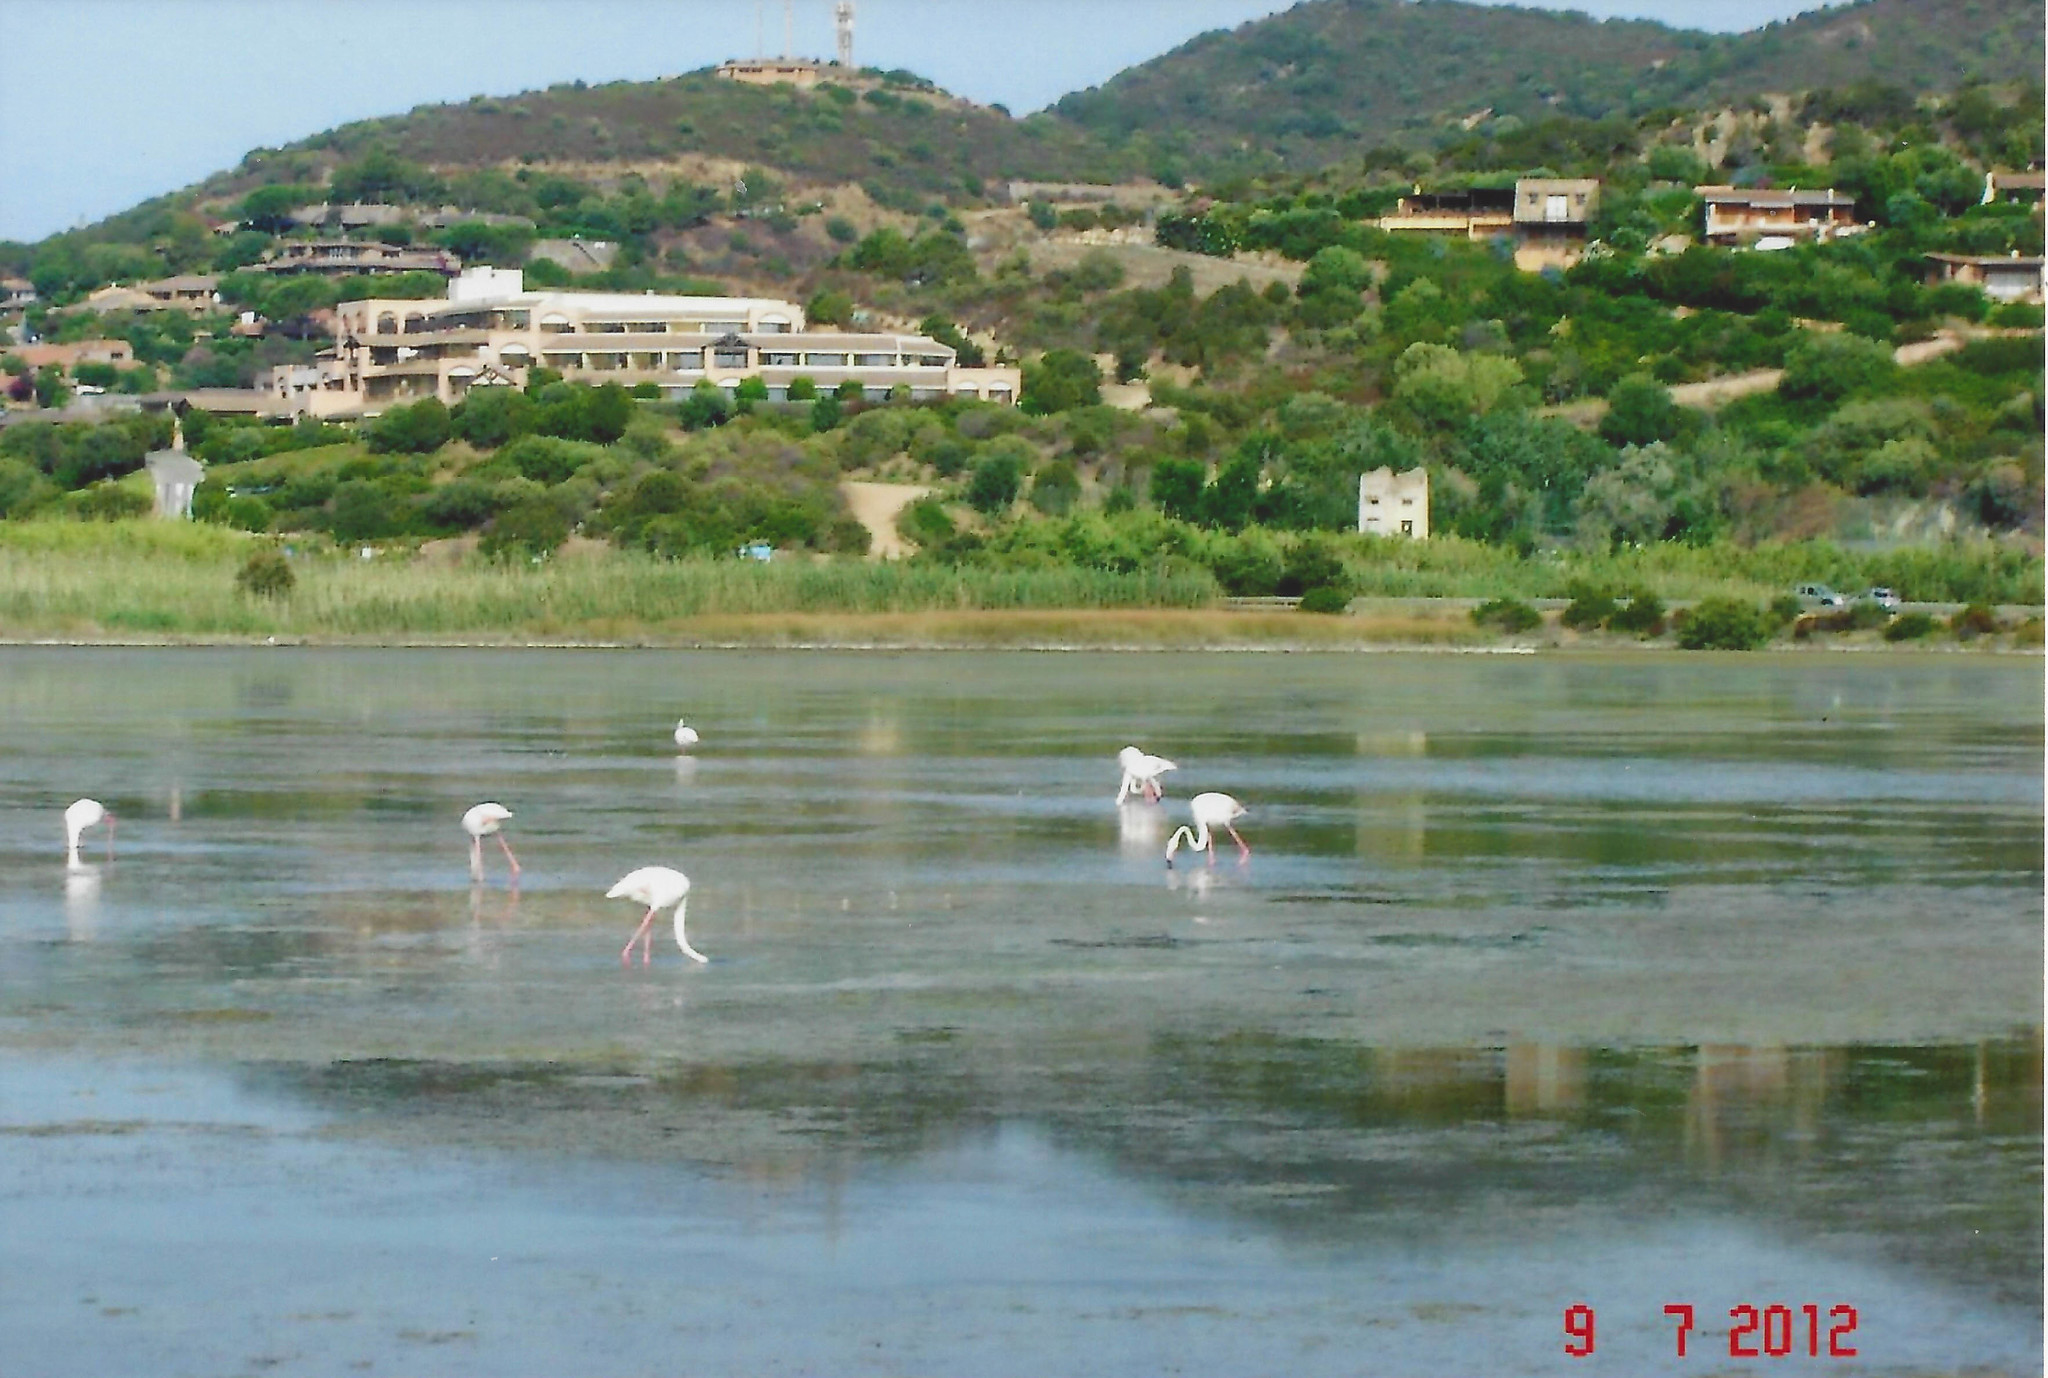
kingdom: Animalia
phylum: Chordata
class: Aves
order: Phoenicopteriformes
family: Phoenicopteridae
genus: Phoenicopterus
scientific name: Phoenicopterus roseus
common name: Greater flamingo
